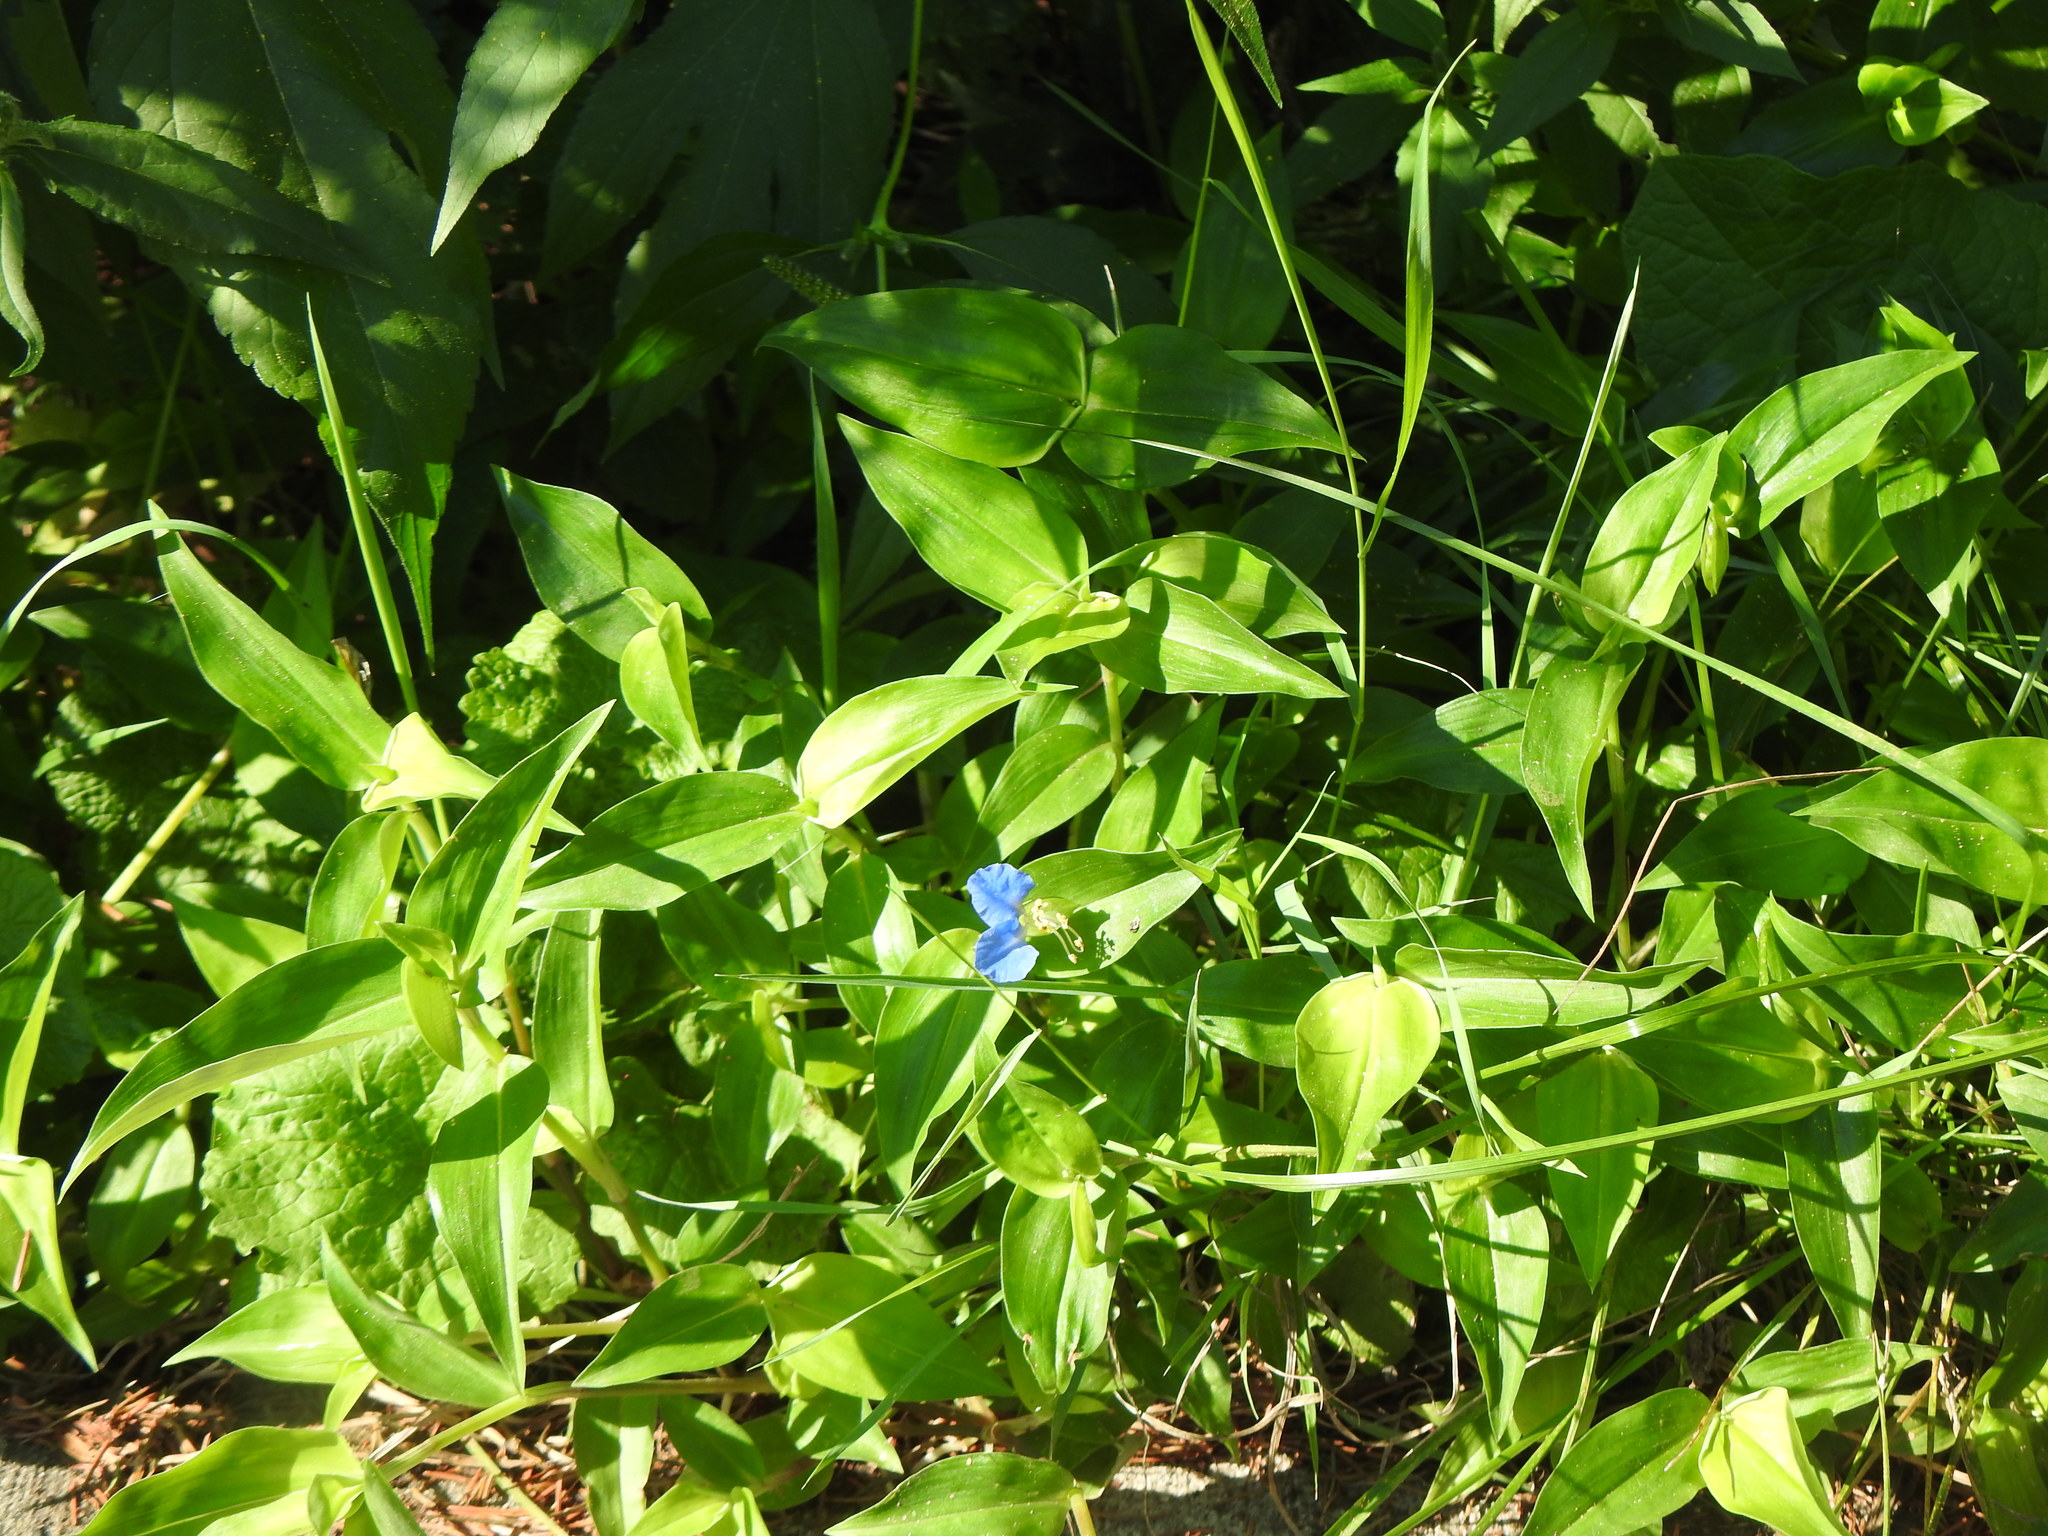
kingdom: Plantae
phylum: Tracheophyta
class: Liliopsida
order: Commelinales
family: Commelinaceae
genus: Commelina
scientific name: Commelina communis
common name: Asiatic dayflower
